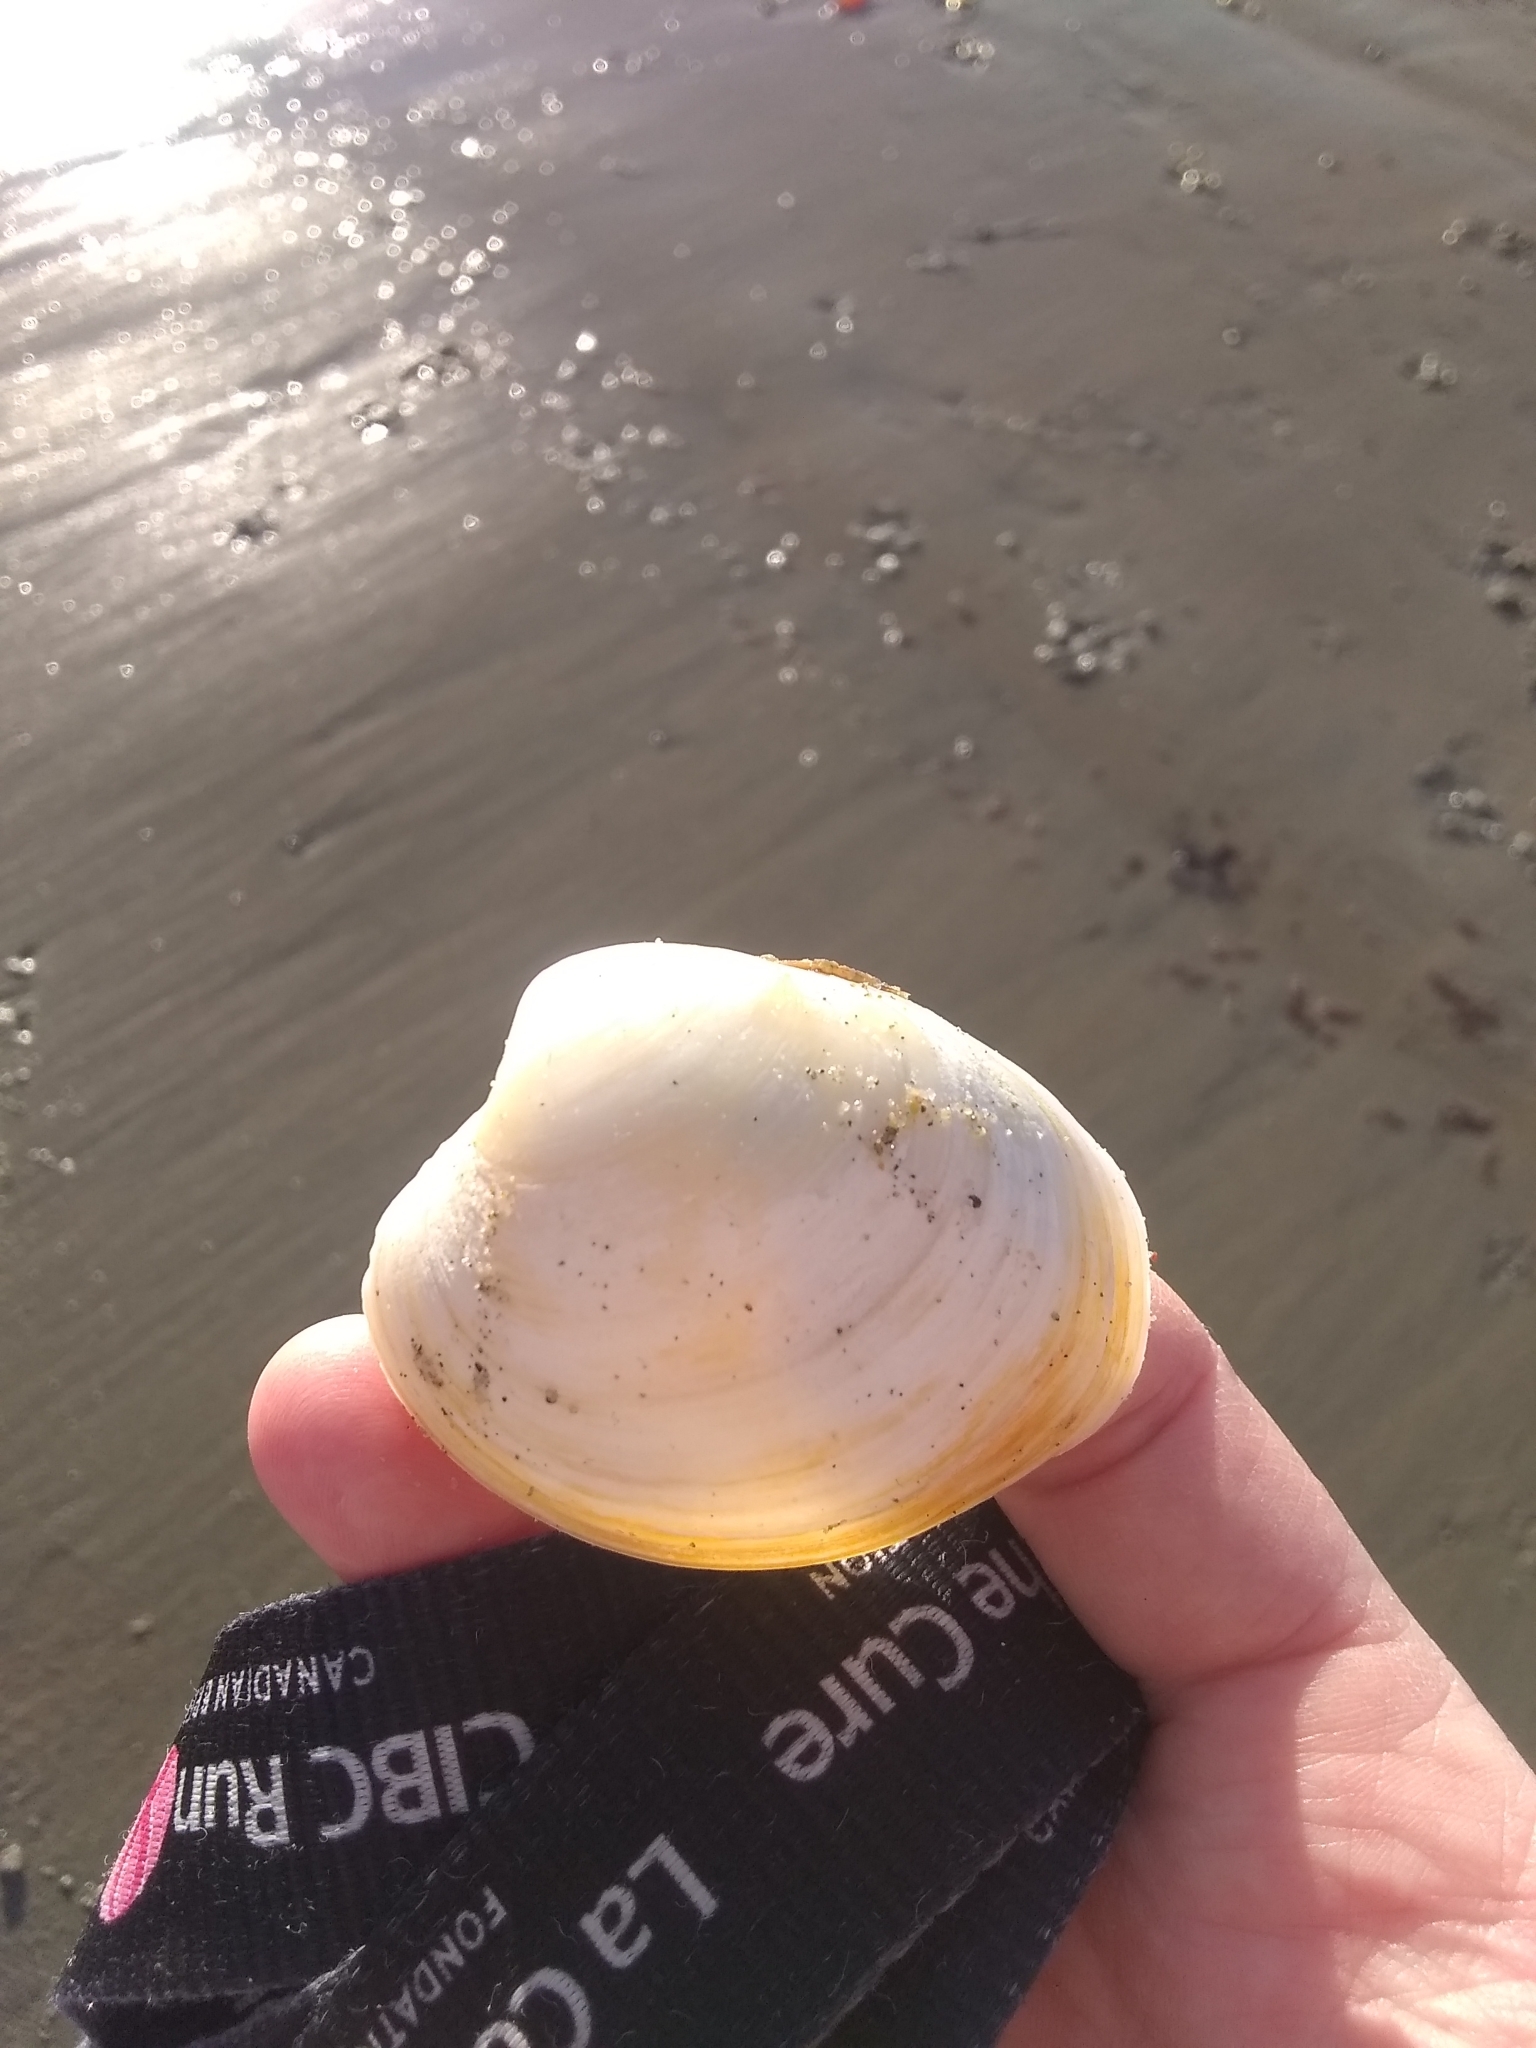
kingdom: Animalia
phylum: Mollusca
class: Bivalvia
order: Venerida
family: Veneridae
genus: Mercenaria
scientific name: Mercenaria mercenaria
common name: American hard-shelled clam
